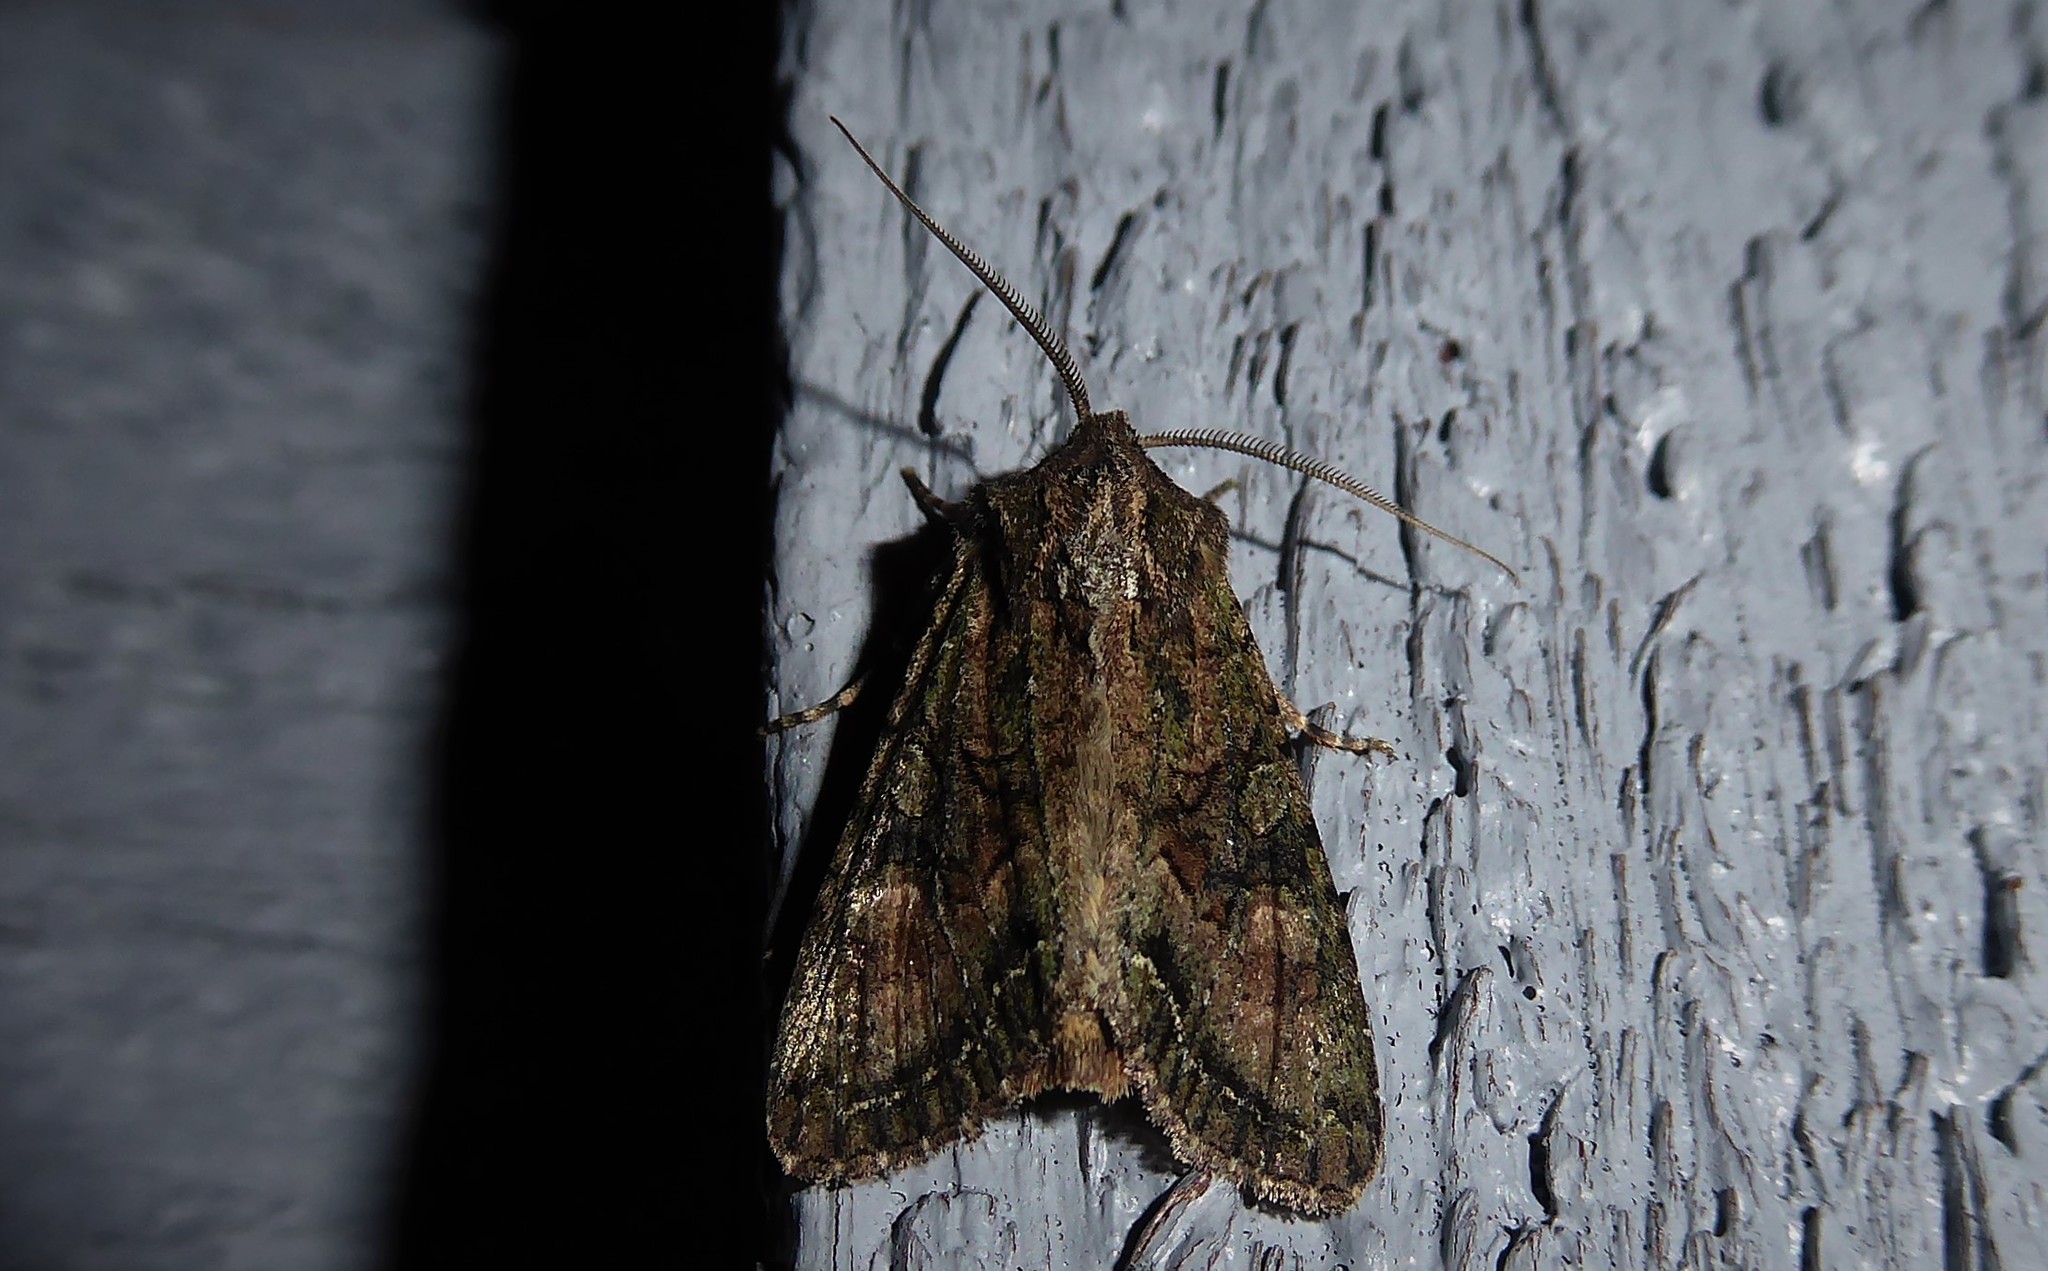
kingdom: Animalia
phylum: Arthropoda
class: Insecta
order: Lepidoptera
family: Noctuidae
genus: Ichneutica
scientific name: Ichneutica mutans
